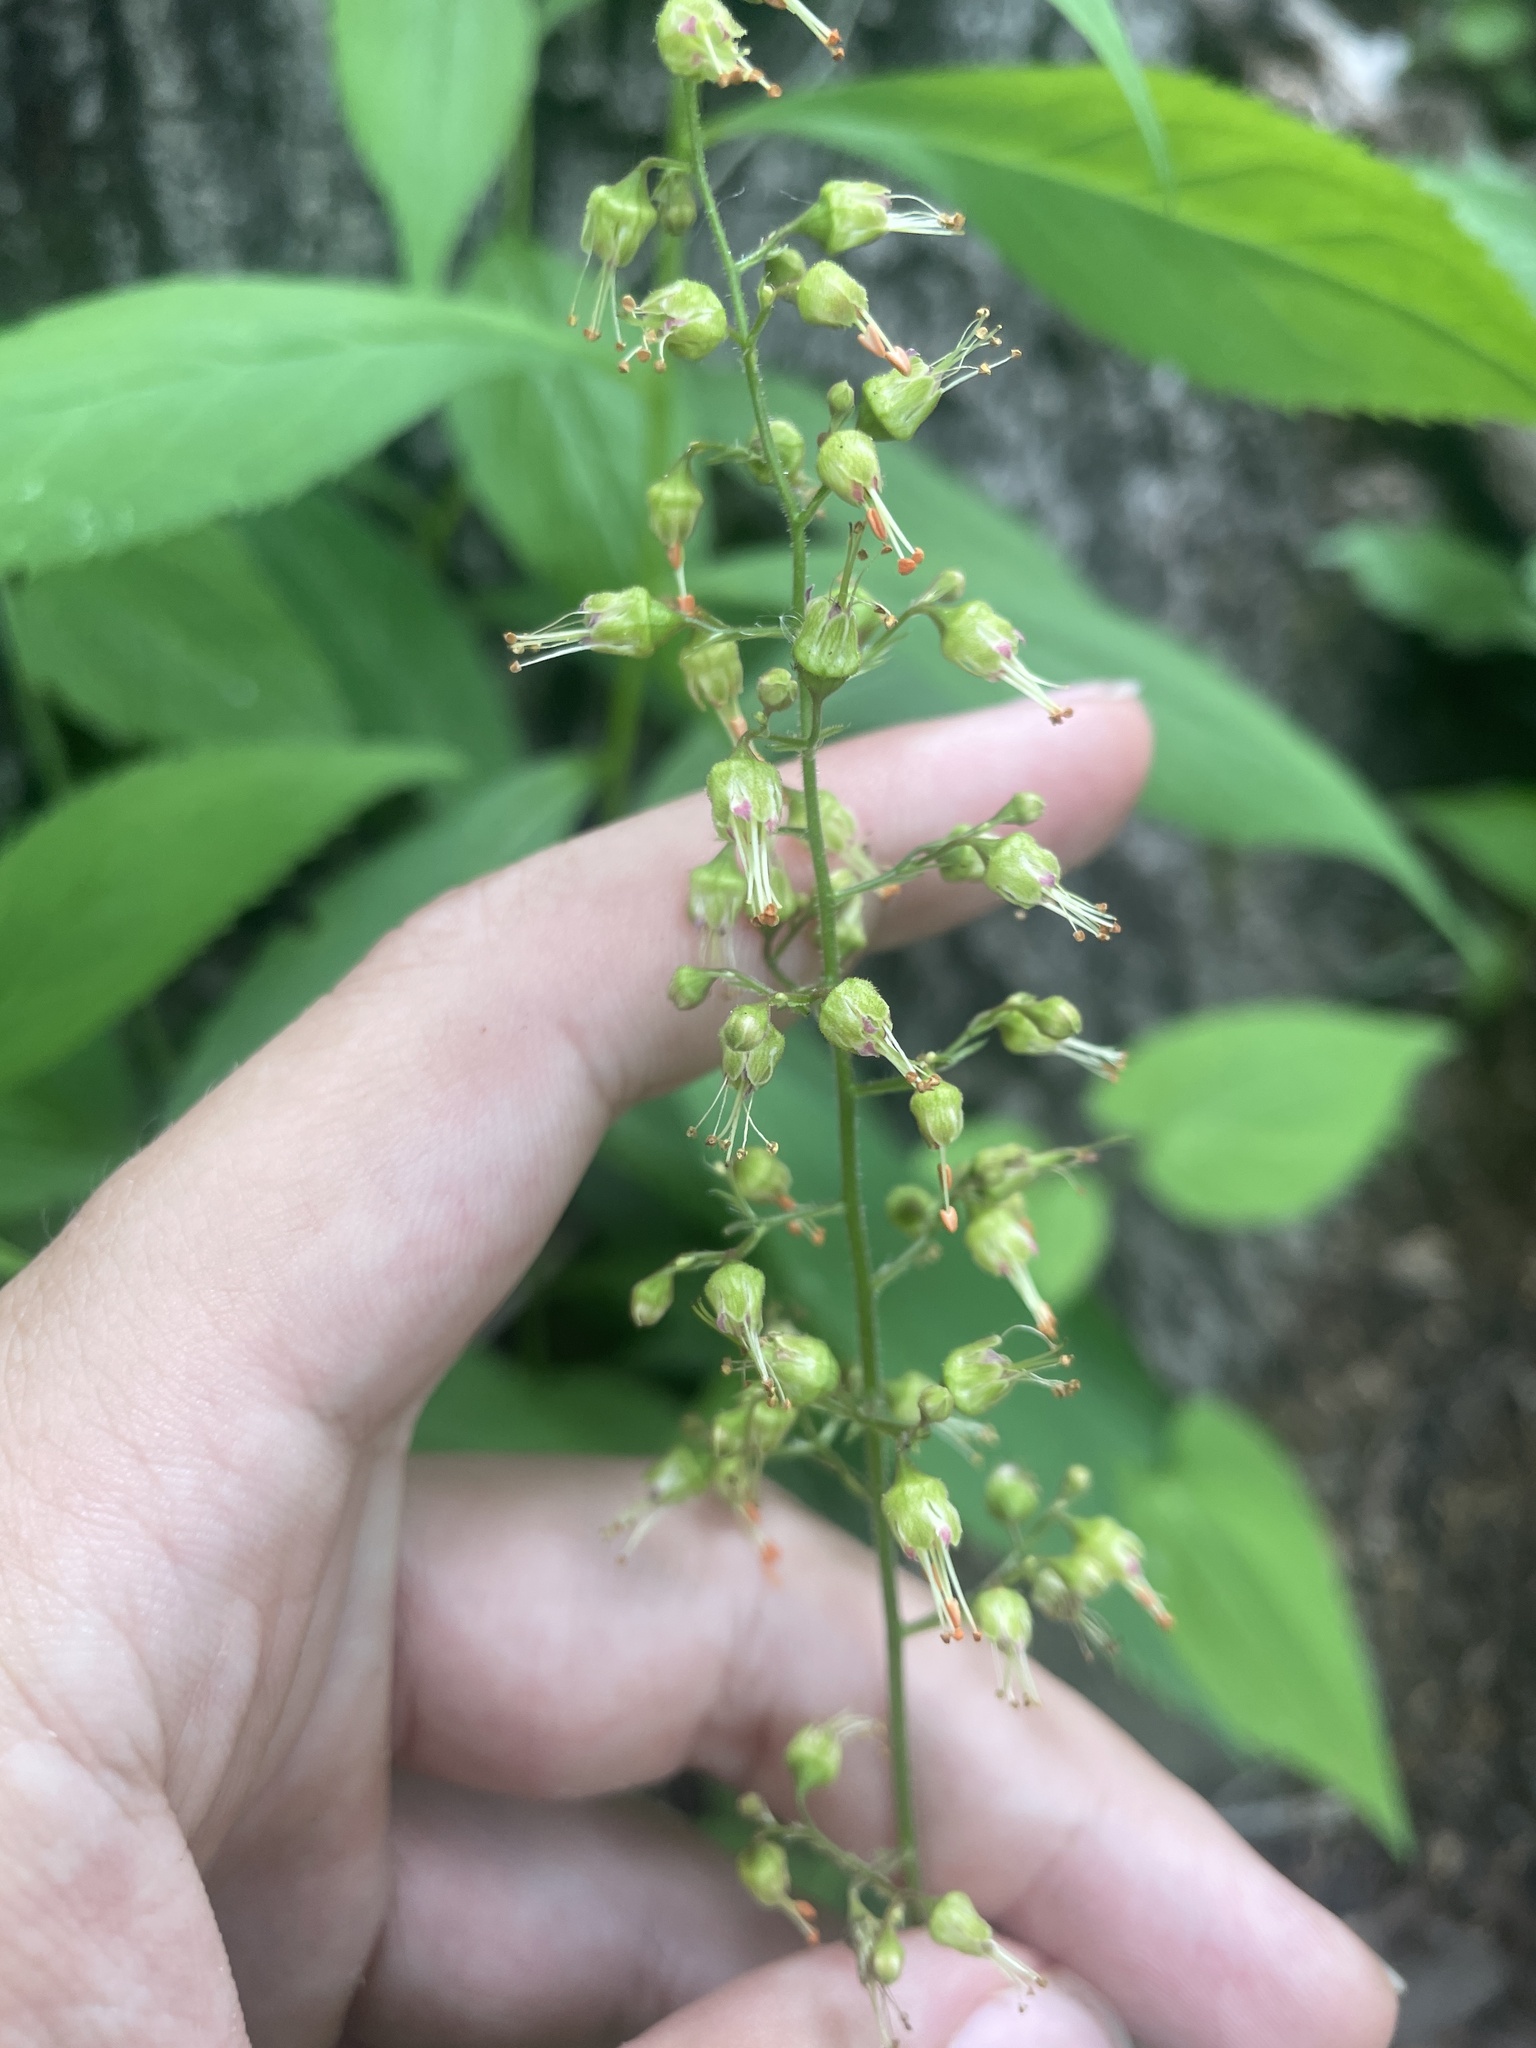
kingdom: Plantae
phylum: Tracheophyta
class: Magnoliopsida
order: Saxifragales
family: Saxifragaceae
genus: Heuchera
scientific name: Heuchera americana
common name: Alumroot
